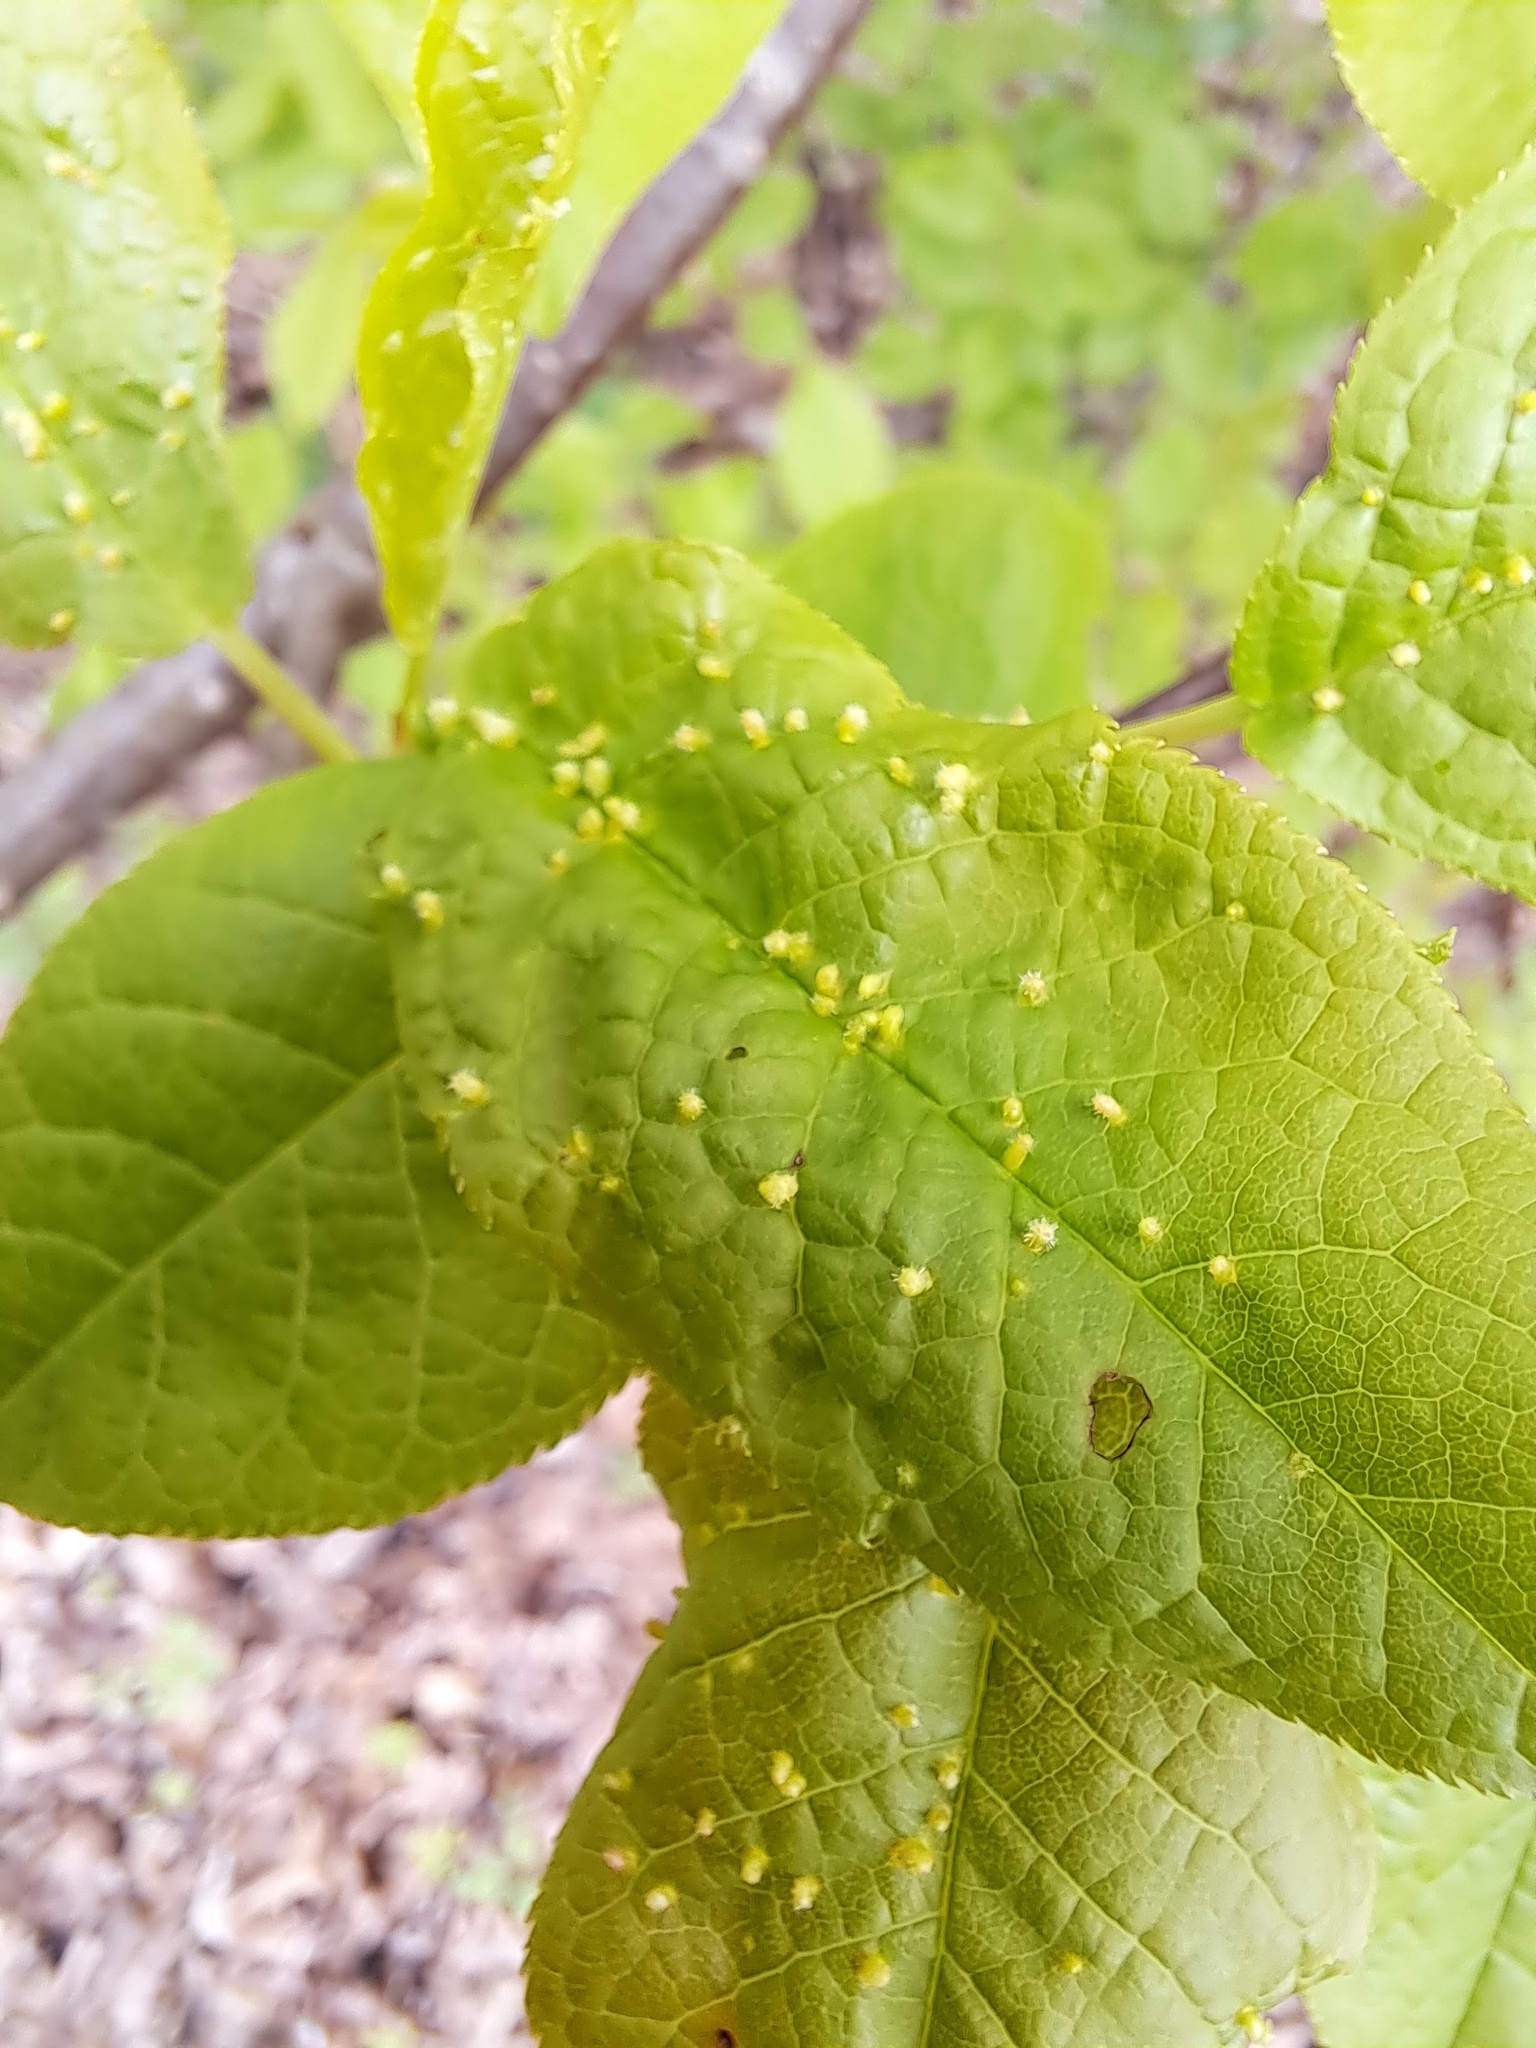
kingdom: Animalia
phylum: Arthropoda
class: Arachnida
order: Trombidiformes
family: Eriophyidae
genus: Phyllocoptes
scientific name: Phyllocoptes eupadi
